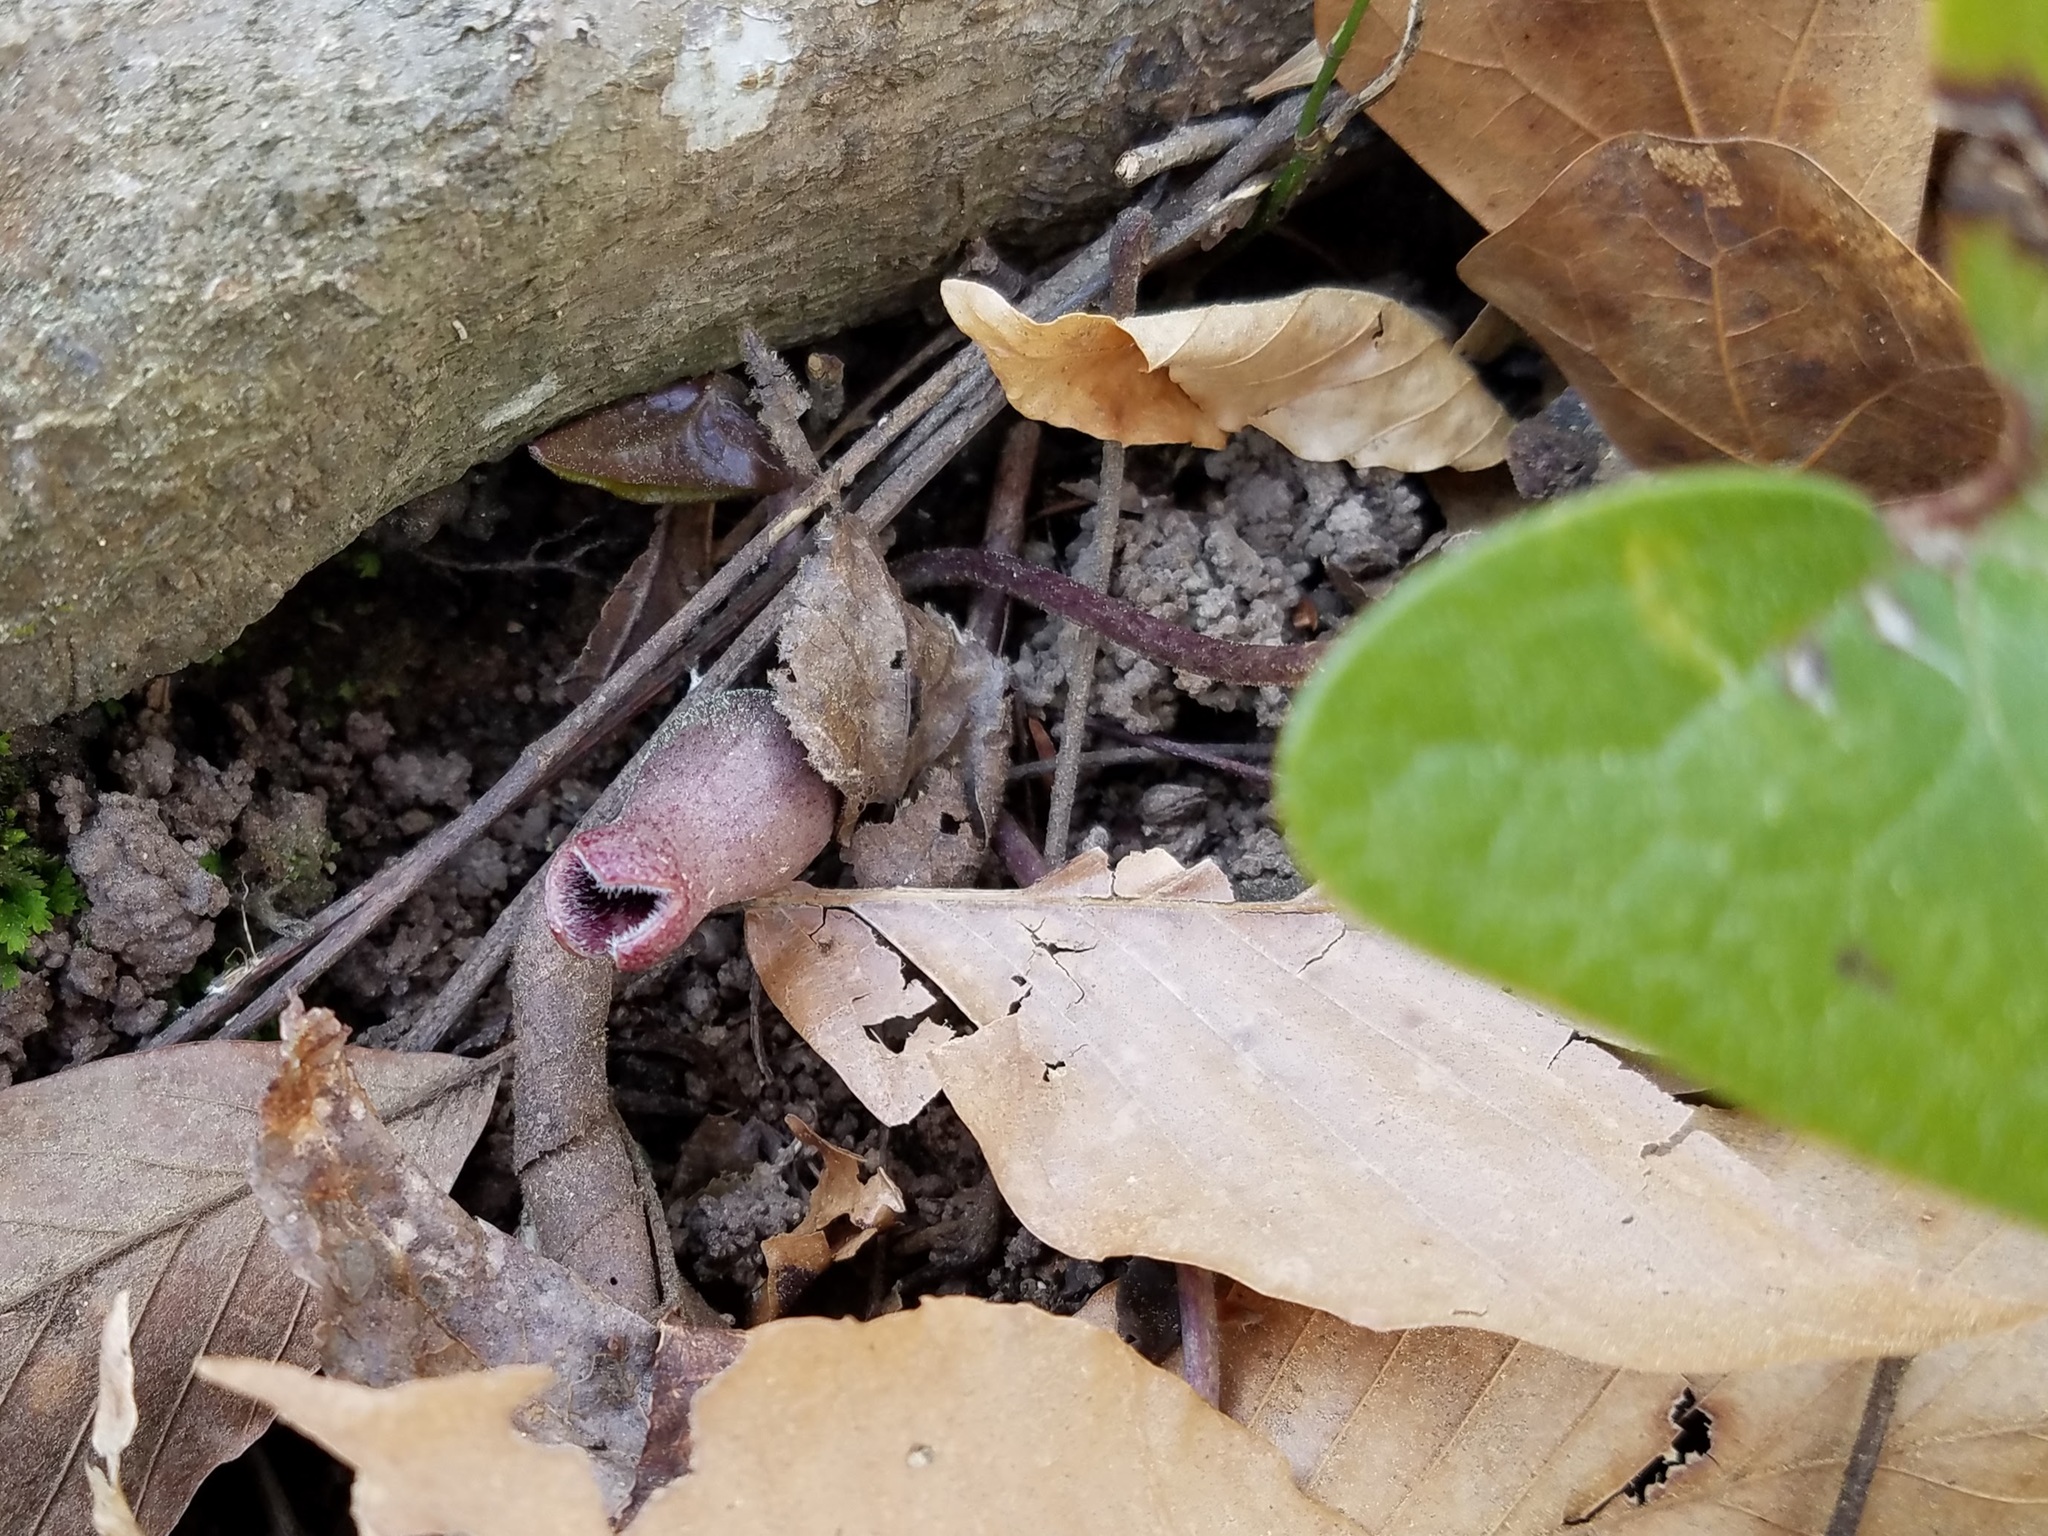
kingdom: Plantae
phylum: Tracheophyta
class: Magnoliopsida
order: Piperales
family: Aristolochiaceae
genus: Hexastylis
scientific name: Hexastylis arifolia
